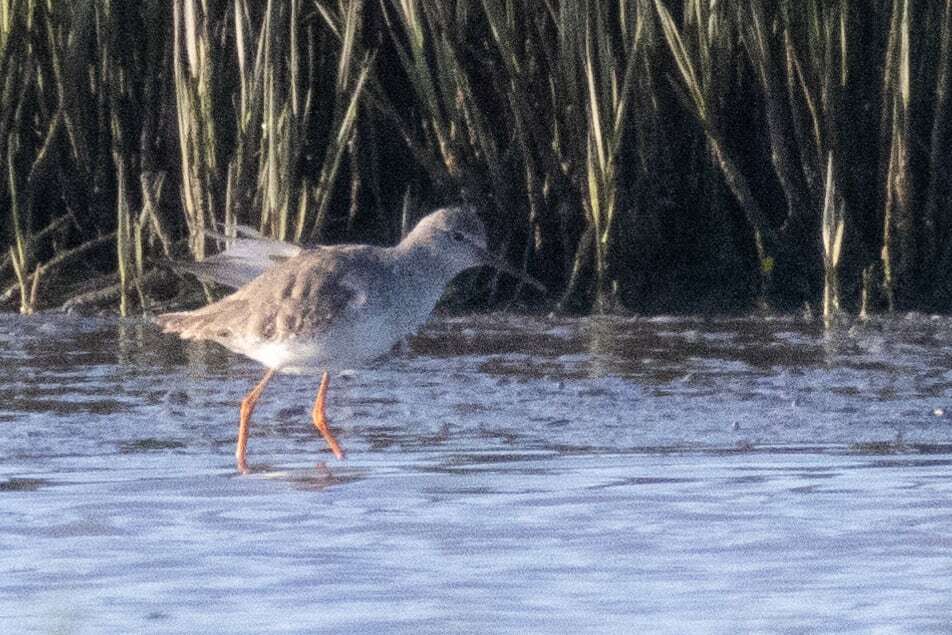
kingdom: Animalia
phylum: Chordata
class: Aves
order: Charadriiformes
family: Scolopacidae
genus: Tringa
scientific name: Tringa totanus
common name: Common redshank
